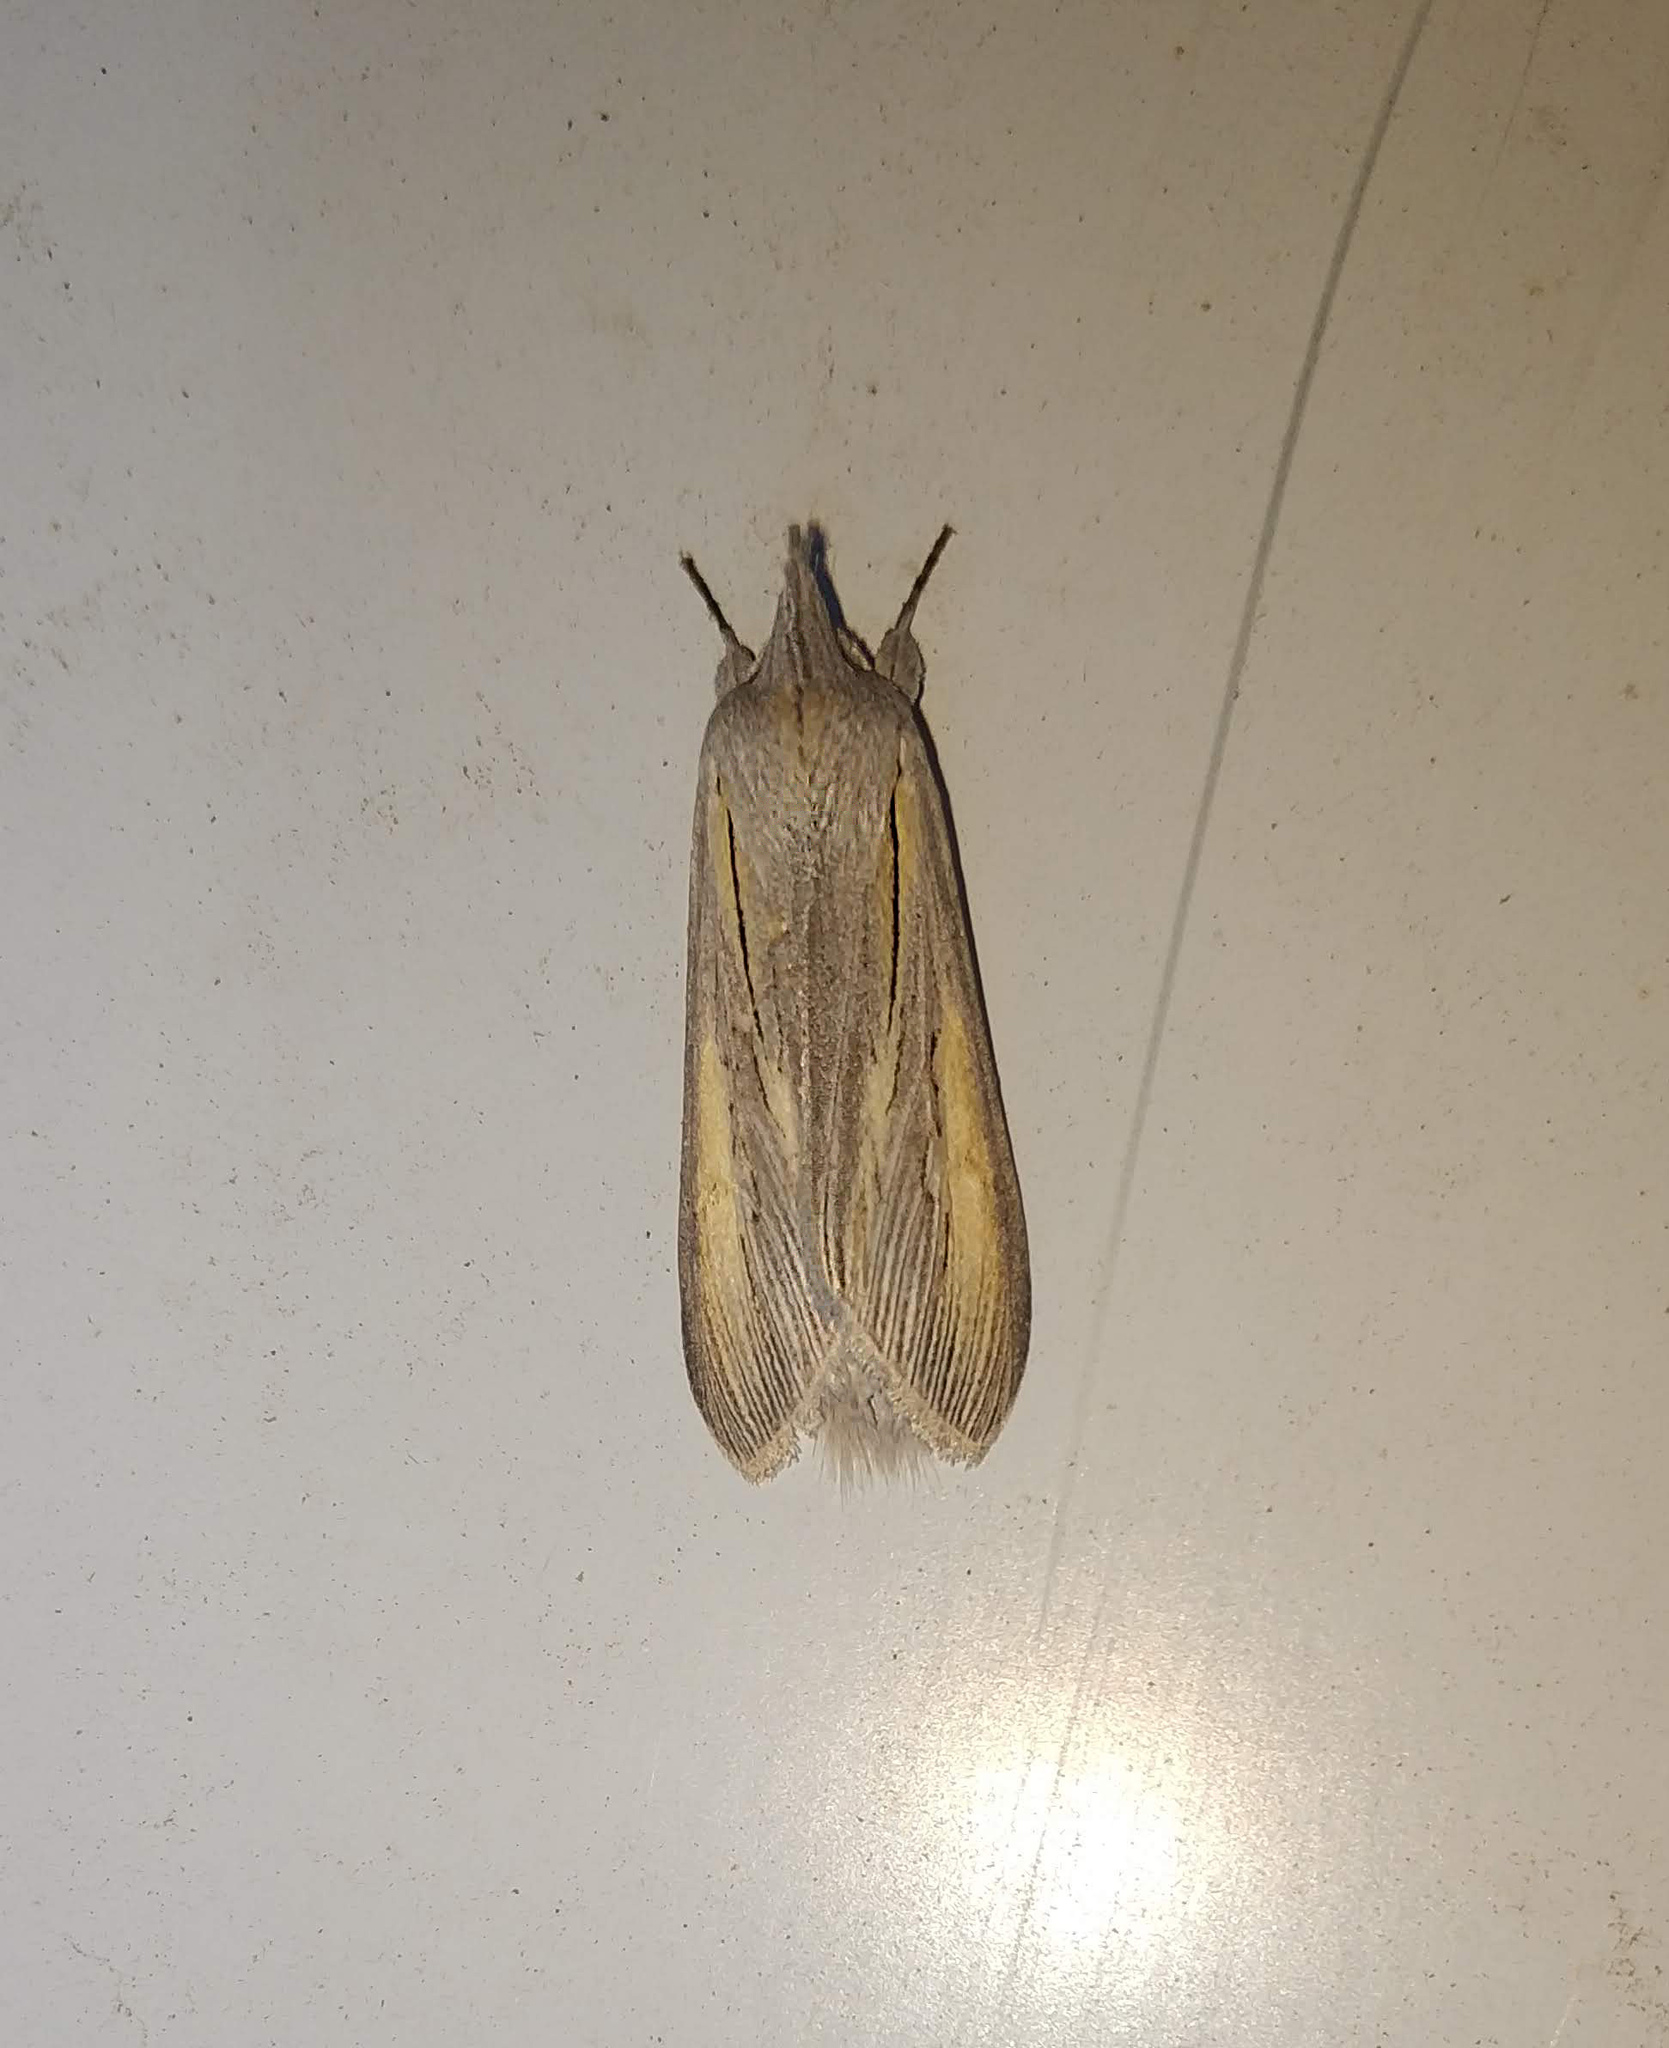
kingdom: Animalia
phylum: Arthropoda
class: Insecta
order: Lepidoptera
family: Noctuidae
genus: Cucullia
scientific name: Cucullia biornata
